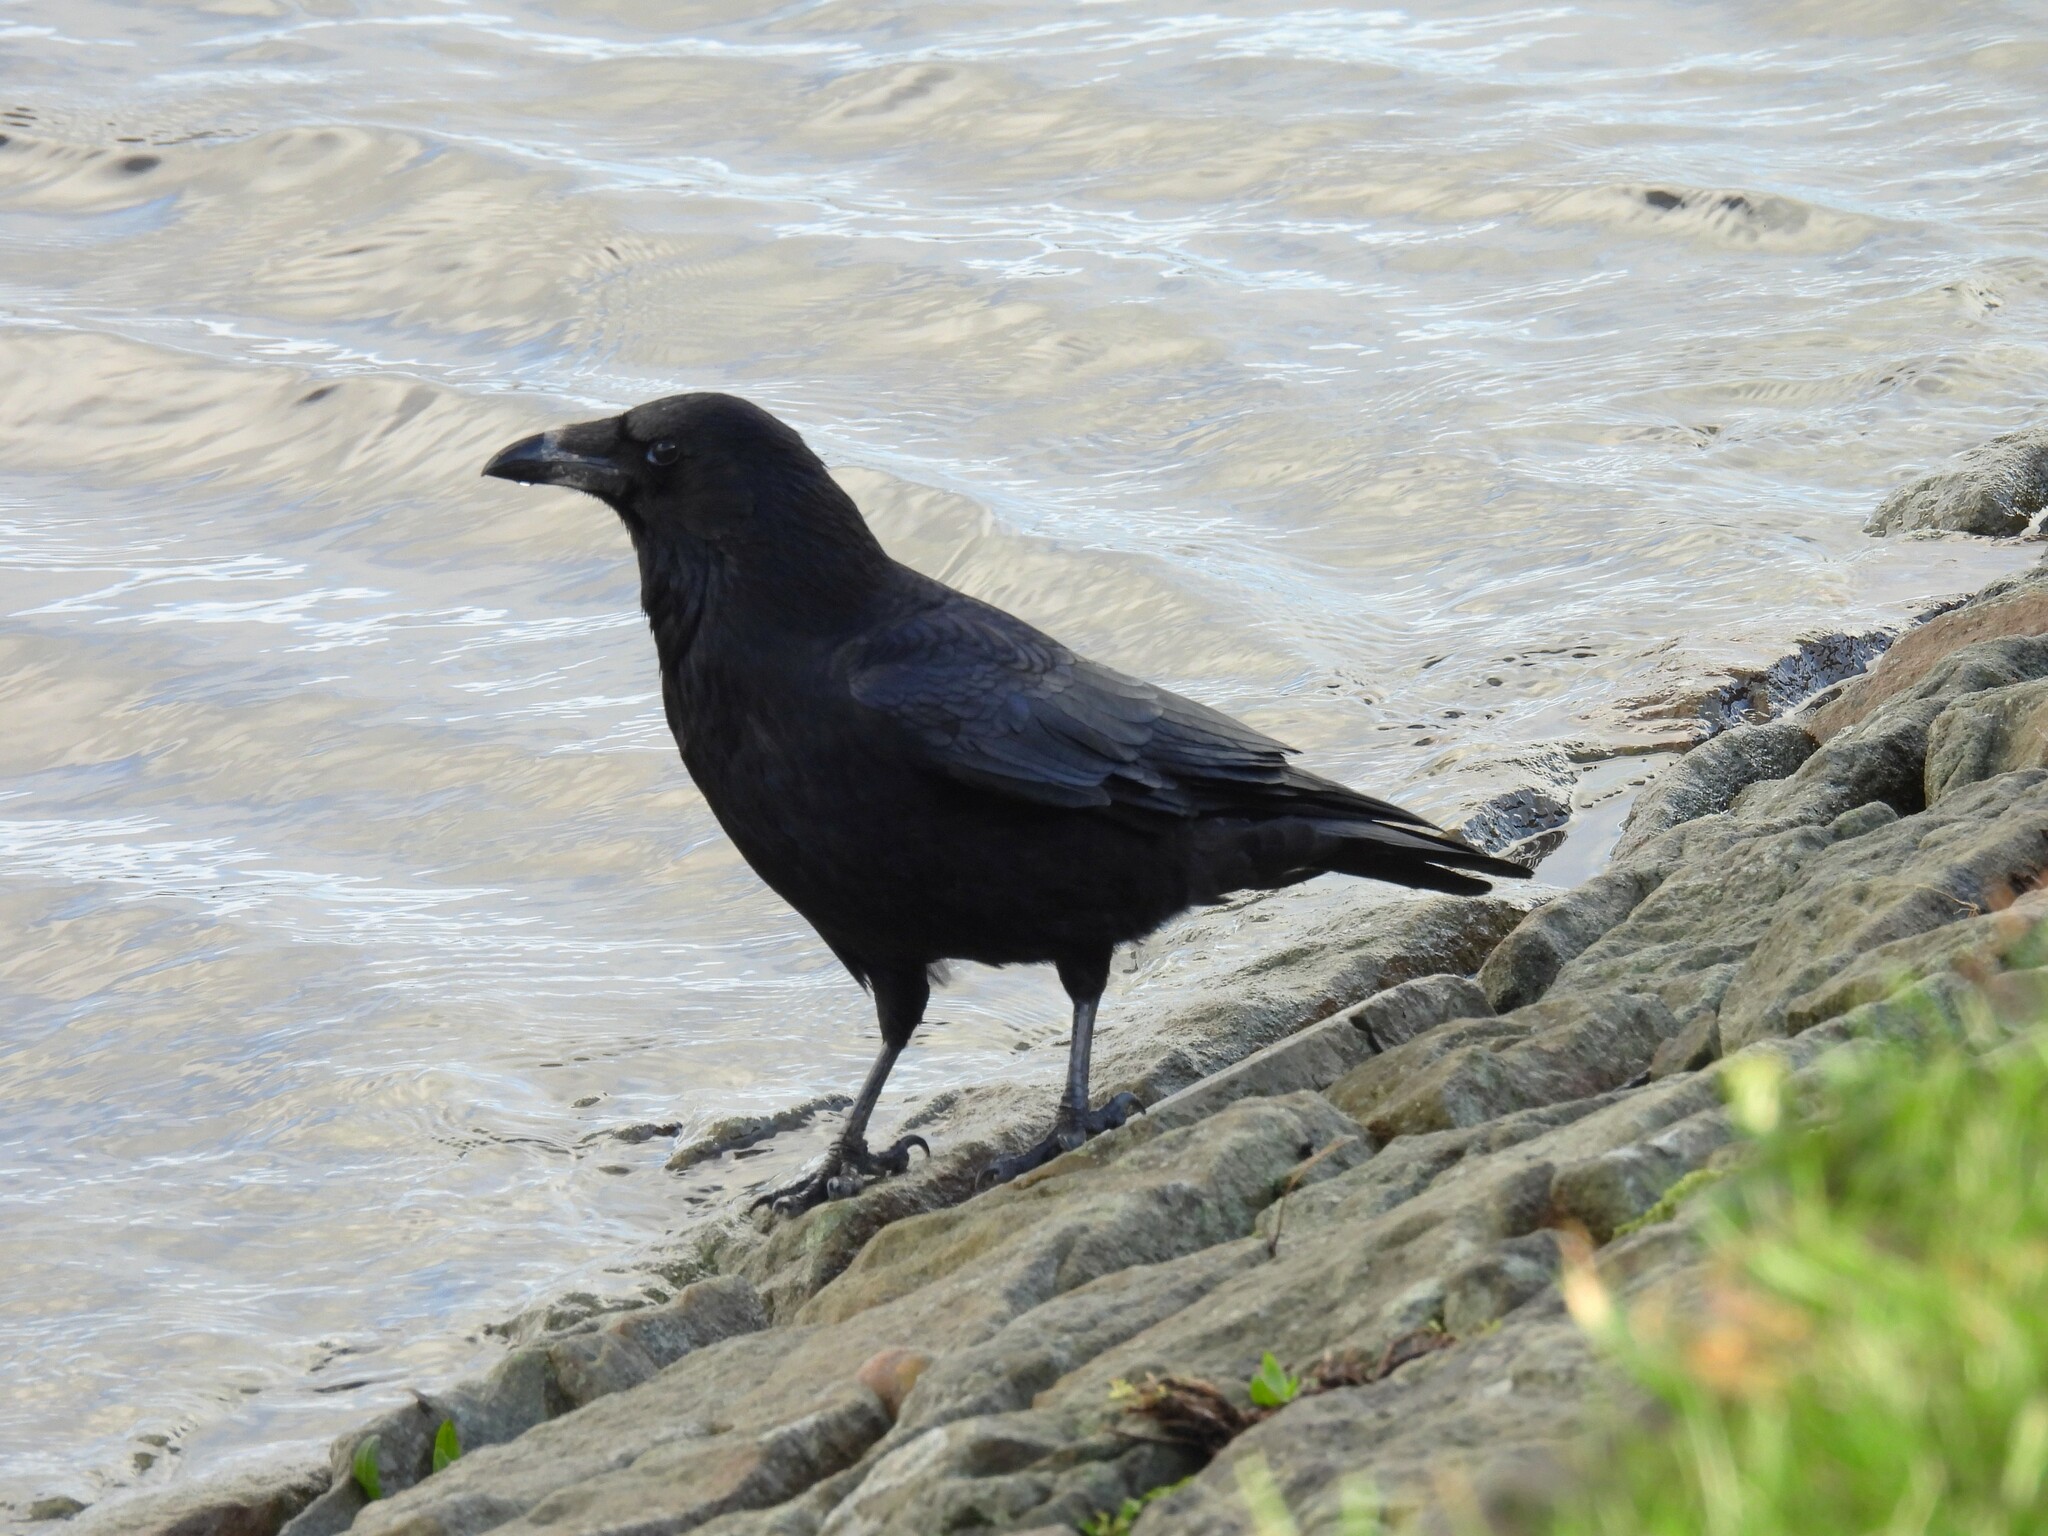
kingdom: Animalia
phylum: Chordata
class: Aves
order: Passeriformes
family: Corvidae
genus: Corvus
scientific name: Corvus corone
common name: Carrion crow
